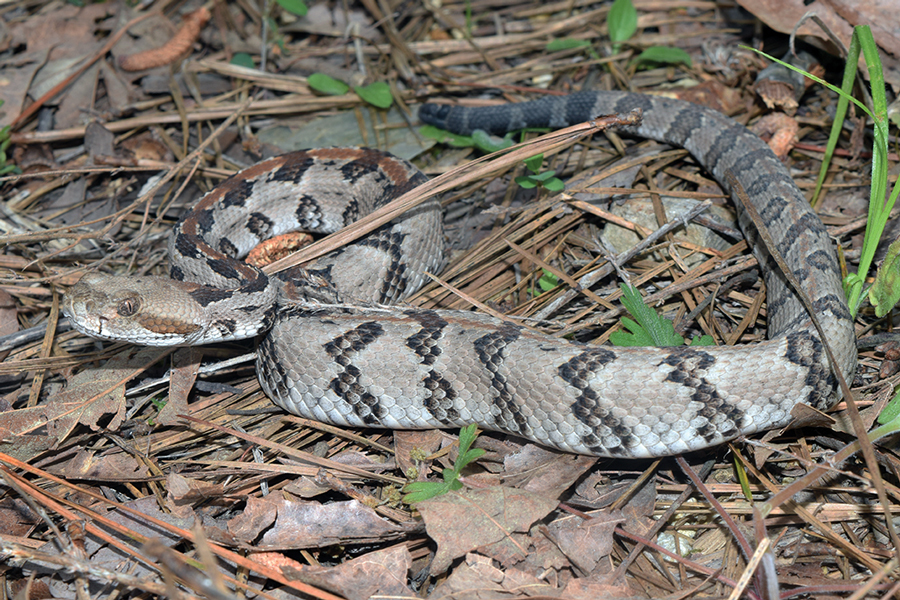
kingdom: Animalia
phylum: Chordata
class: Squamata
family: Viperidae
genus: Crotalus
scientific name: Crotalus horridus
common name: Timber rattlesnake
